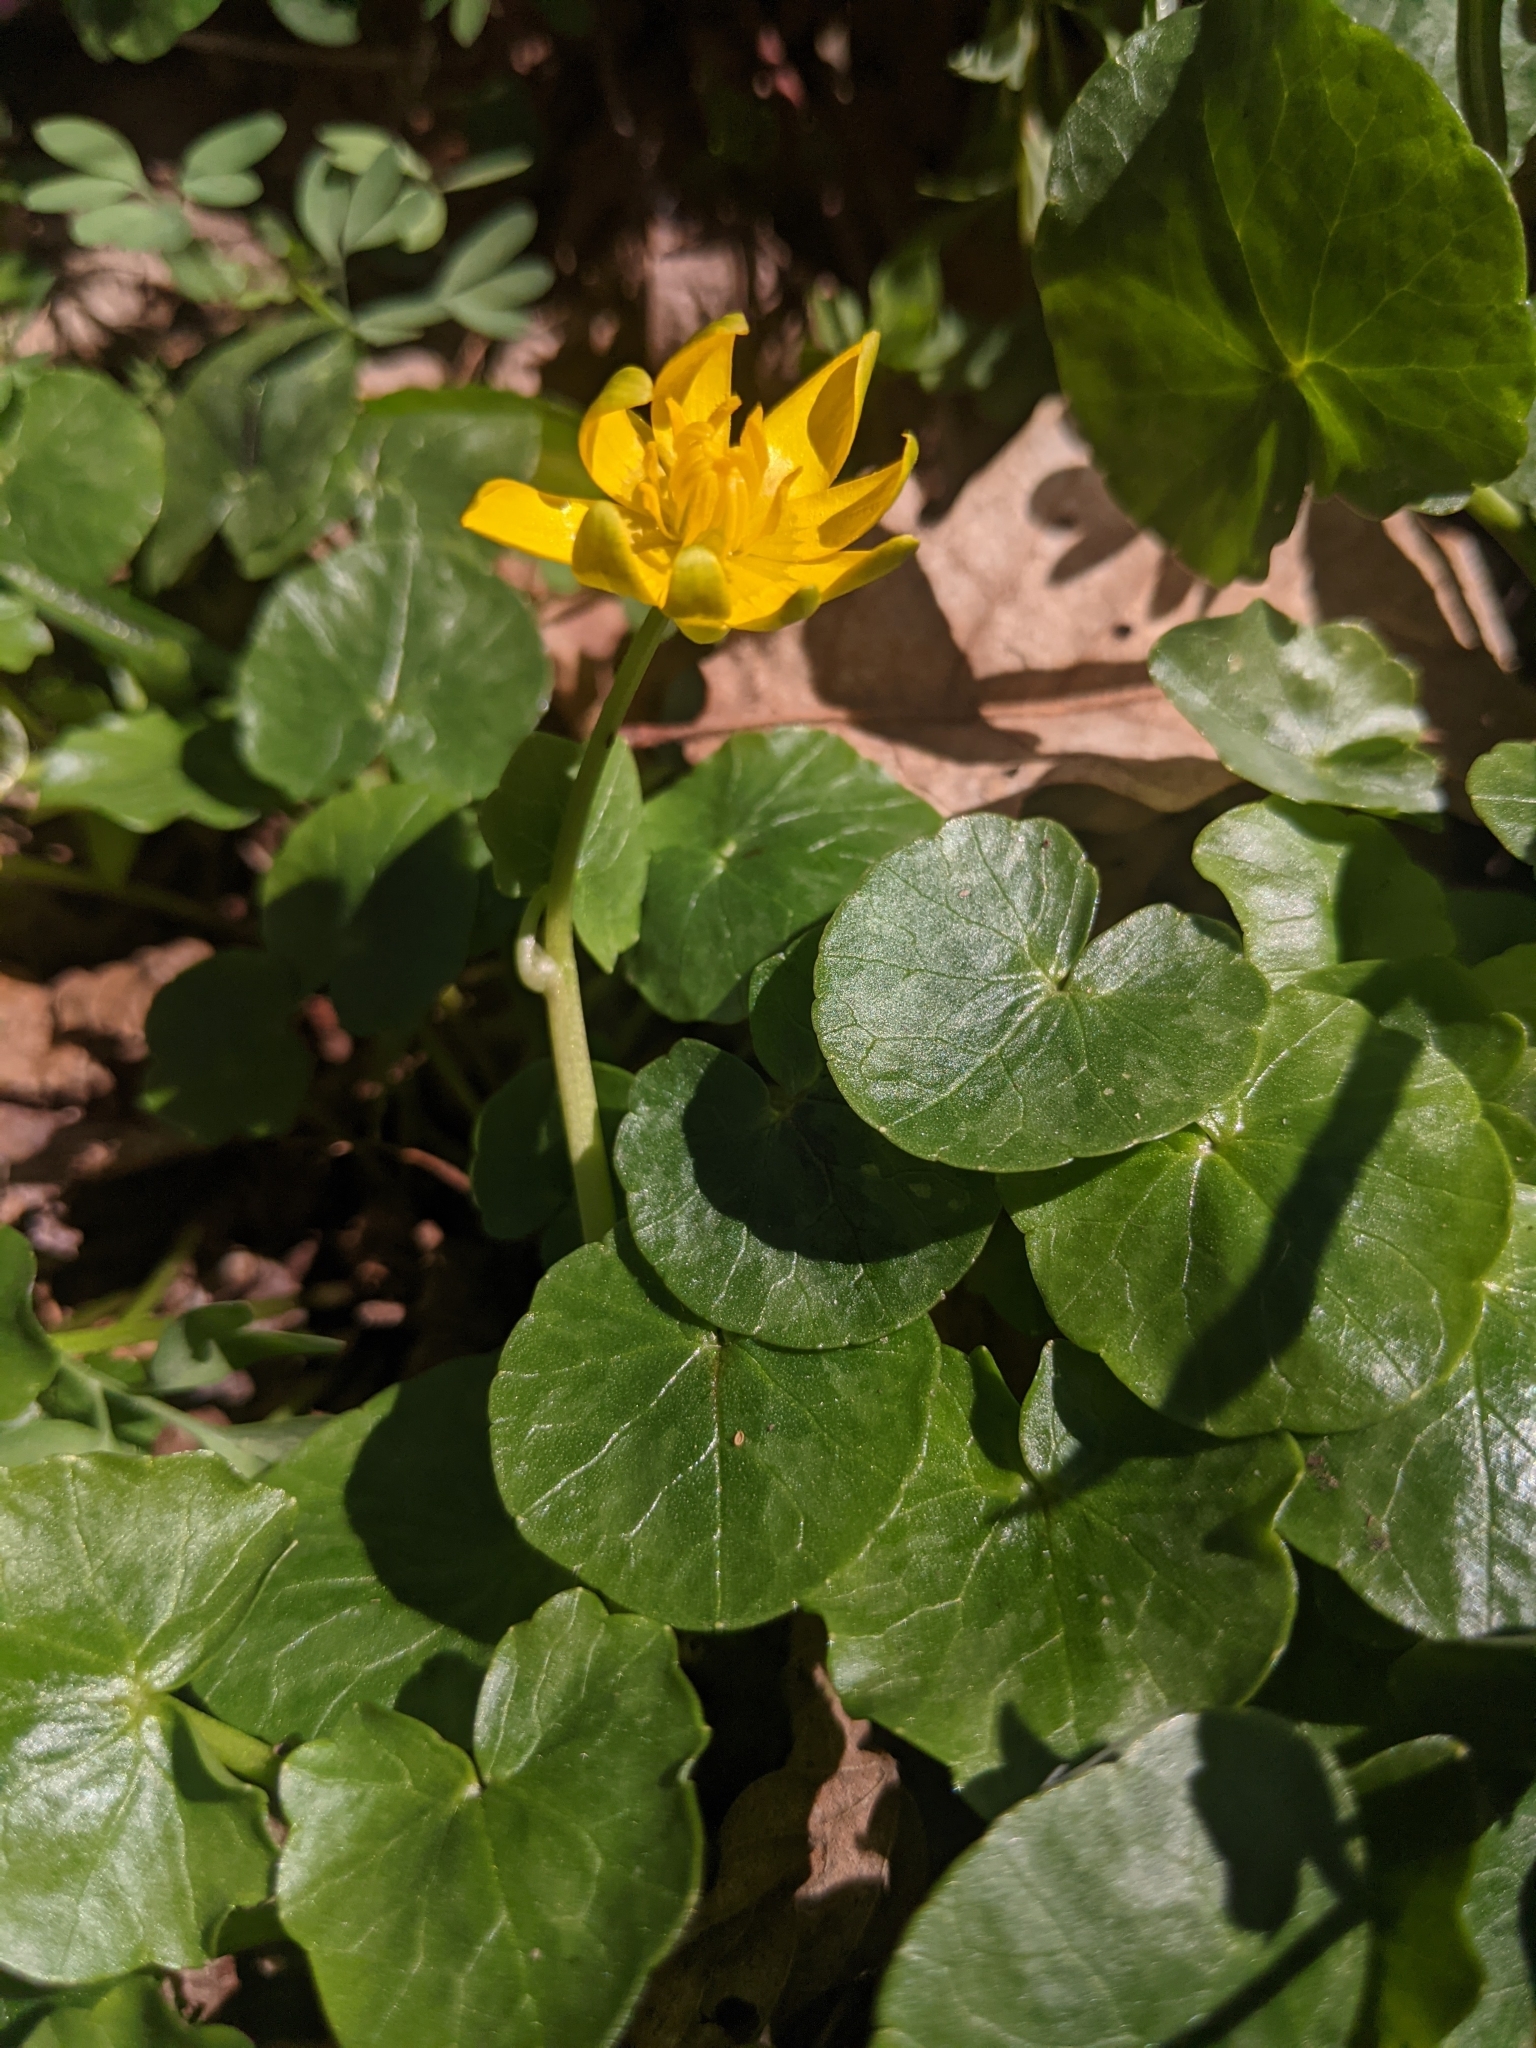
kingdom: Plantae
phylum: Tracheophyta
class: Magnoliopsida
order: Ranunculales
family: Ranunculaceae
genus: Ficaria
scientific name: Ficaria verna
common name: Lesser celandine
